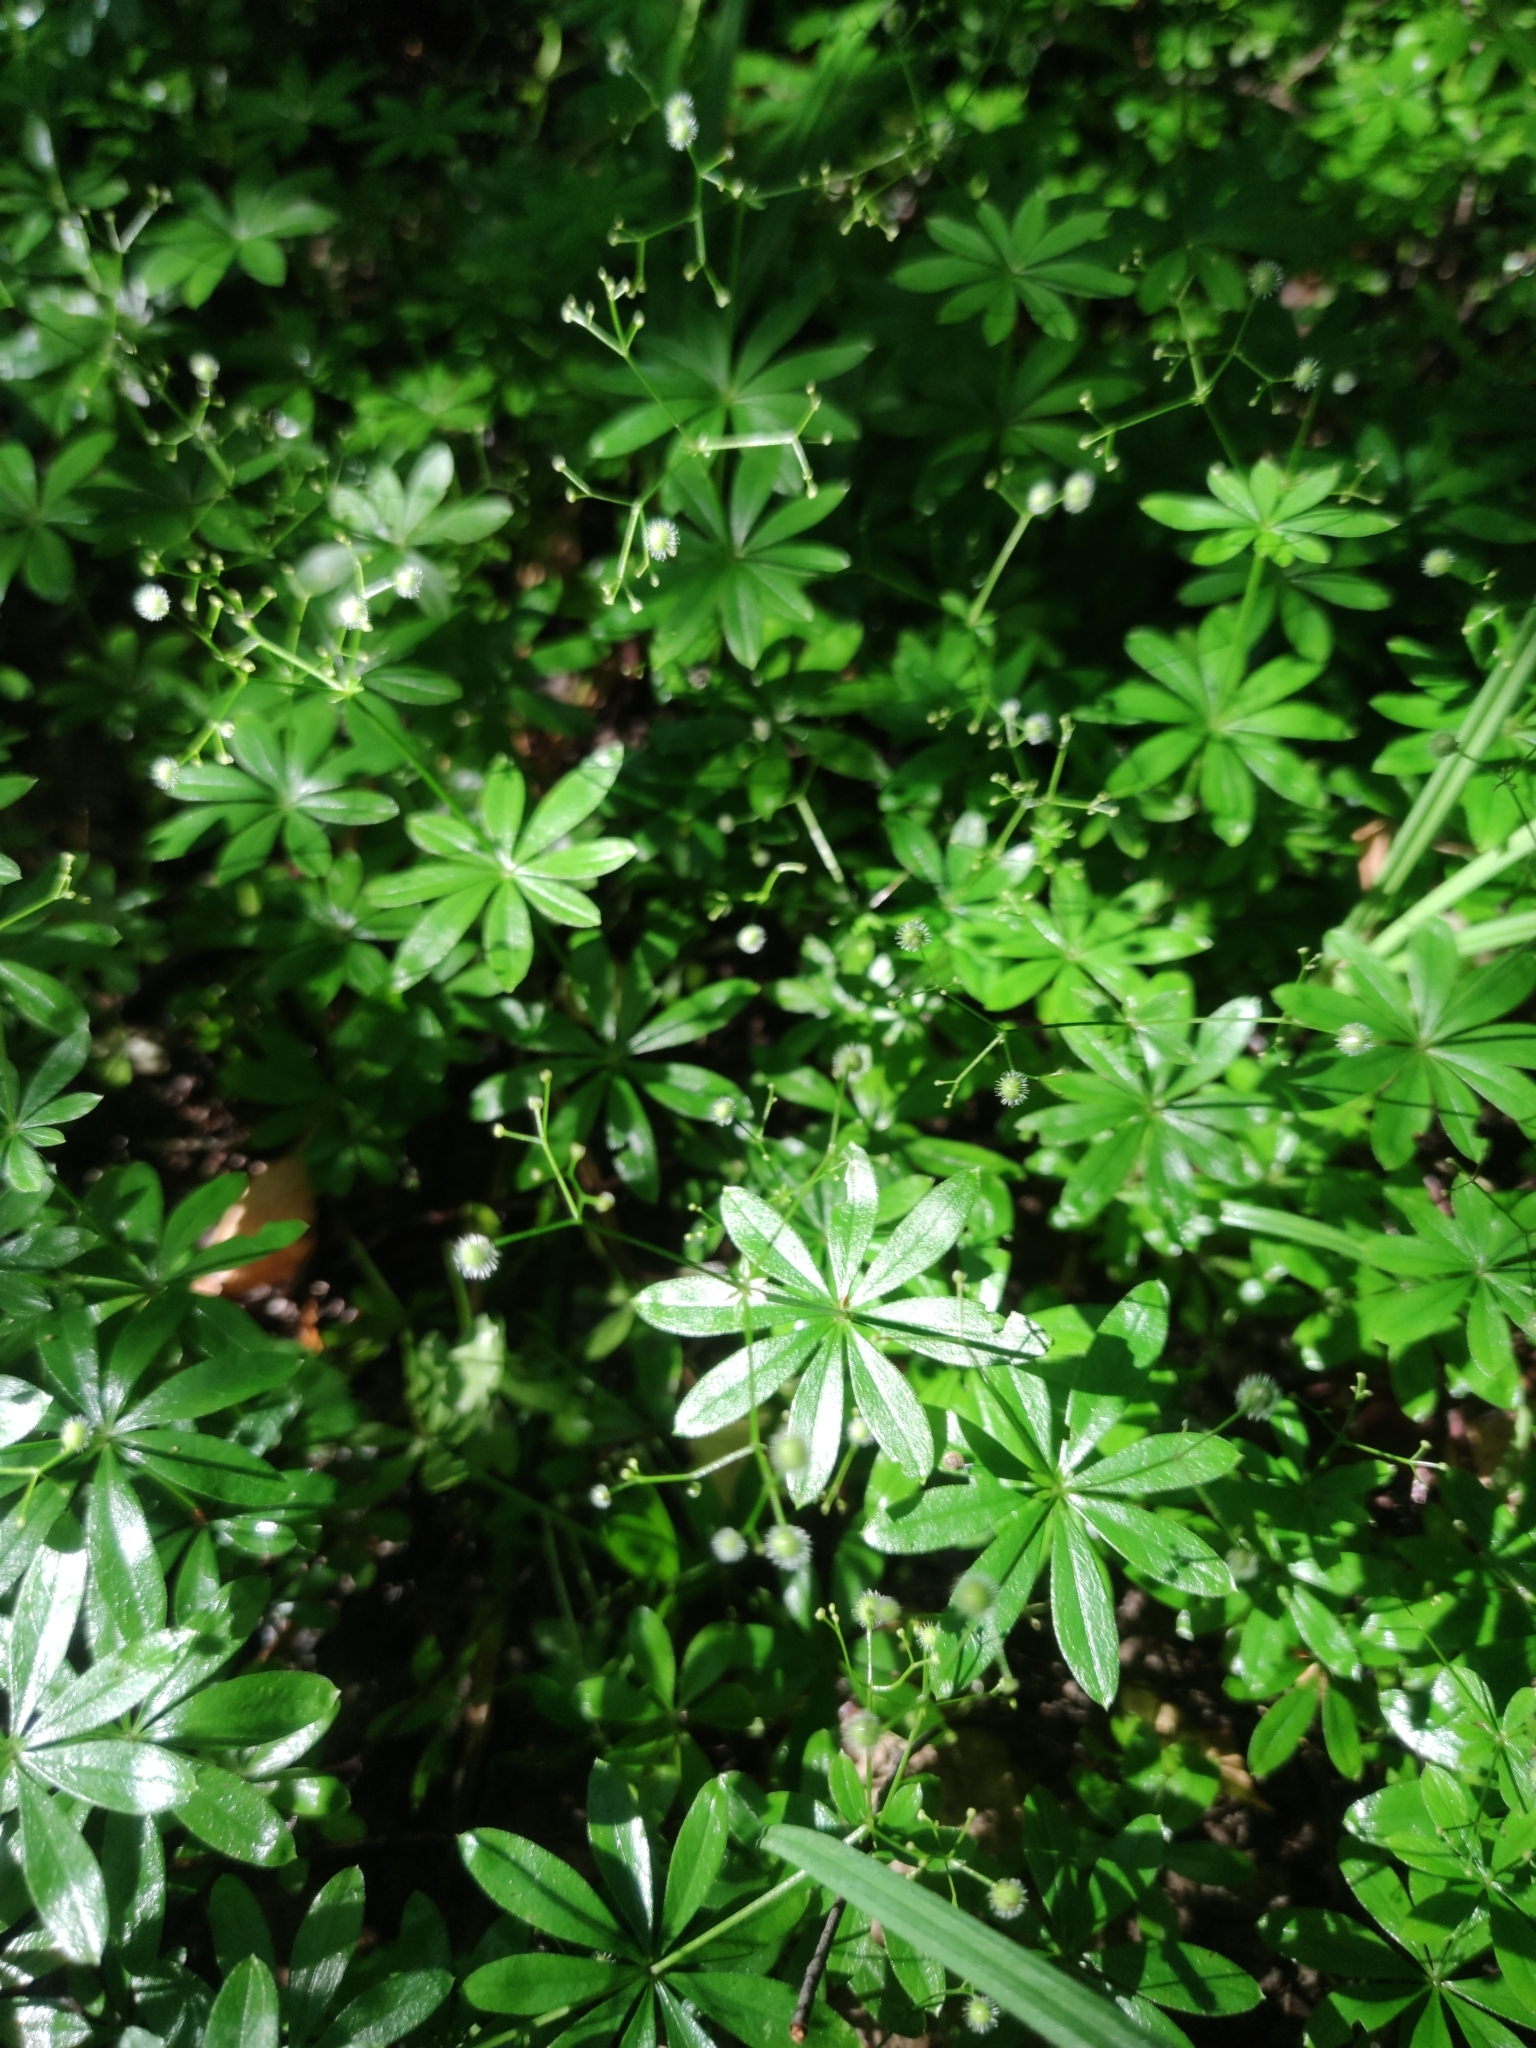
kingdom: Plantae
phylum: Tracheophyta
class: Magnoliopsida
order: Gentianales
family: Rubiaceae
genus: Galium
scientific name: Galium odoratum
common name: Sweet woodruff
